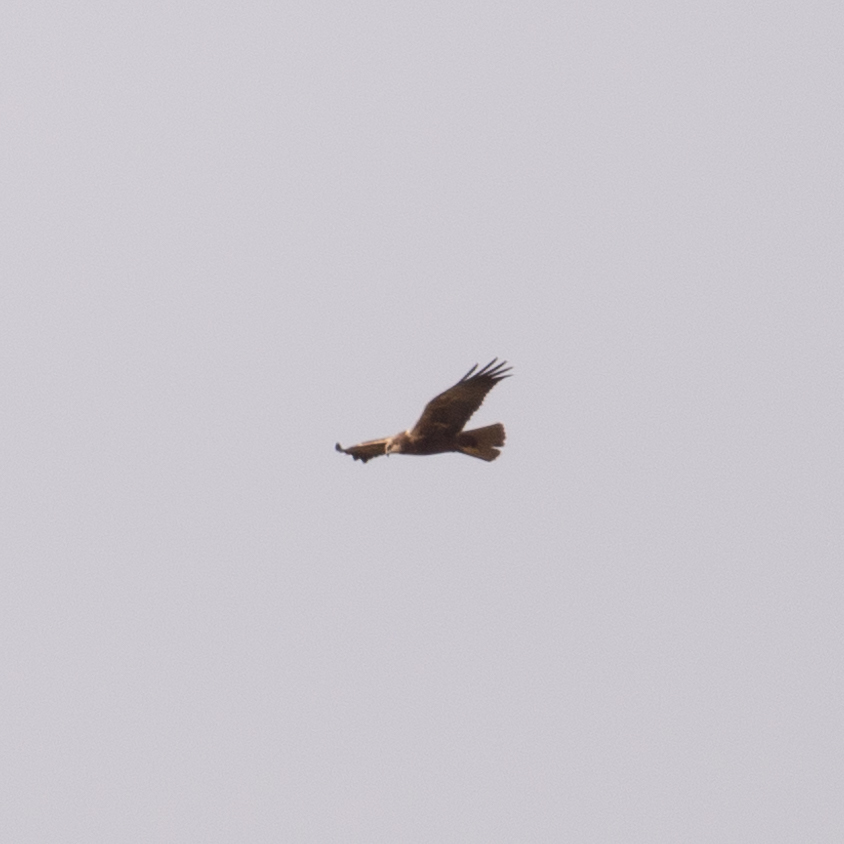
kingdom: Animalia
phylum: Chordata
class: Aves
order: Accipitriformes
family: Accipitridae
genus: Circus
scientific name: Circus aeruginosus
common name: Western marsh harrier
